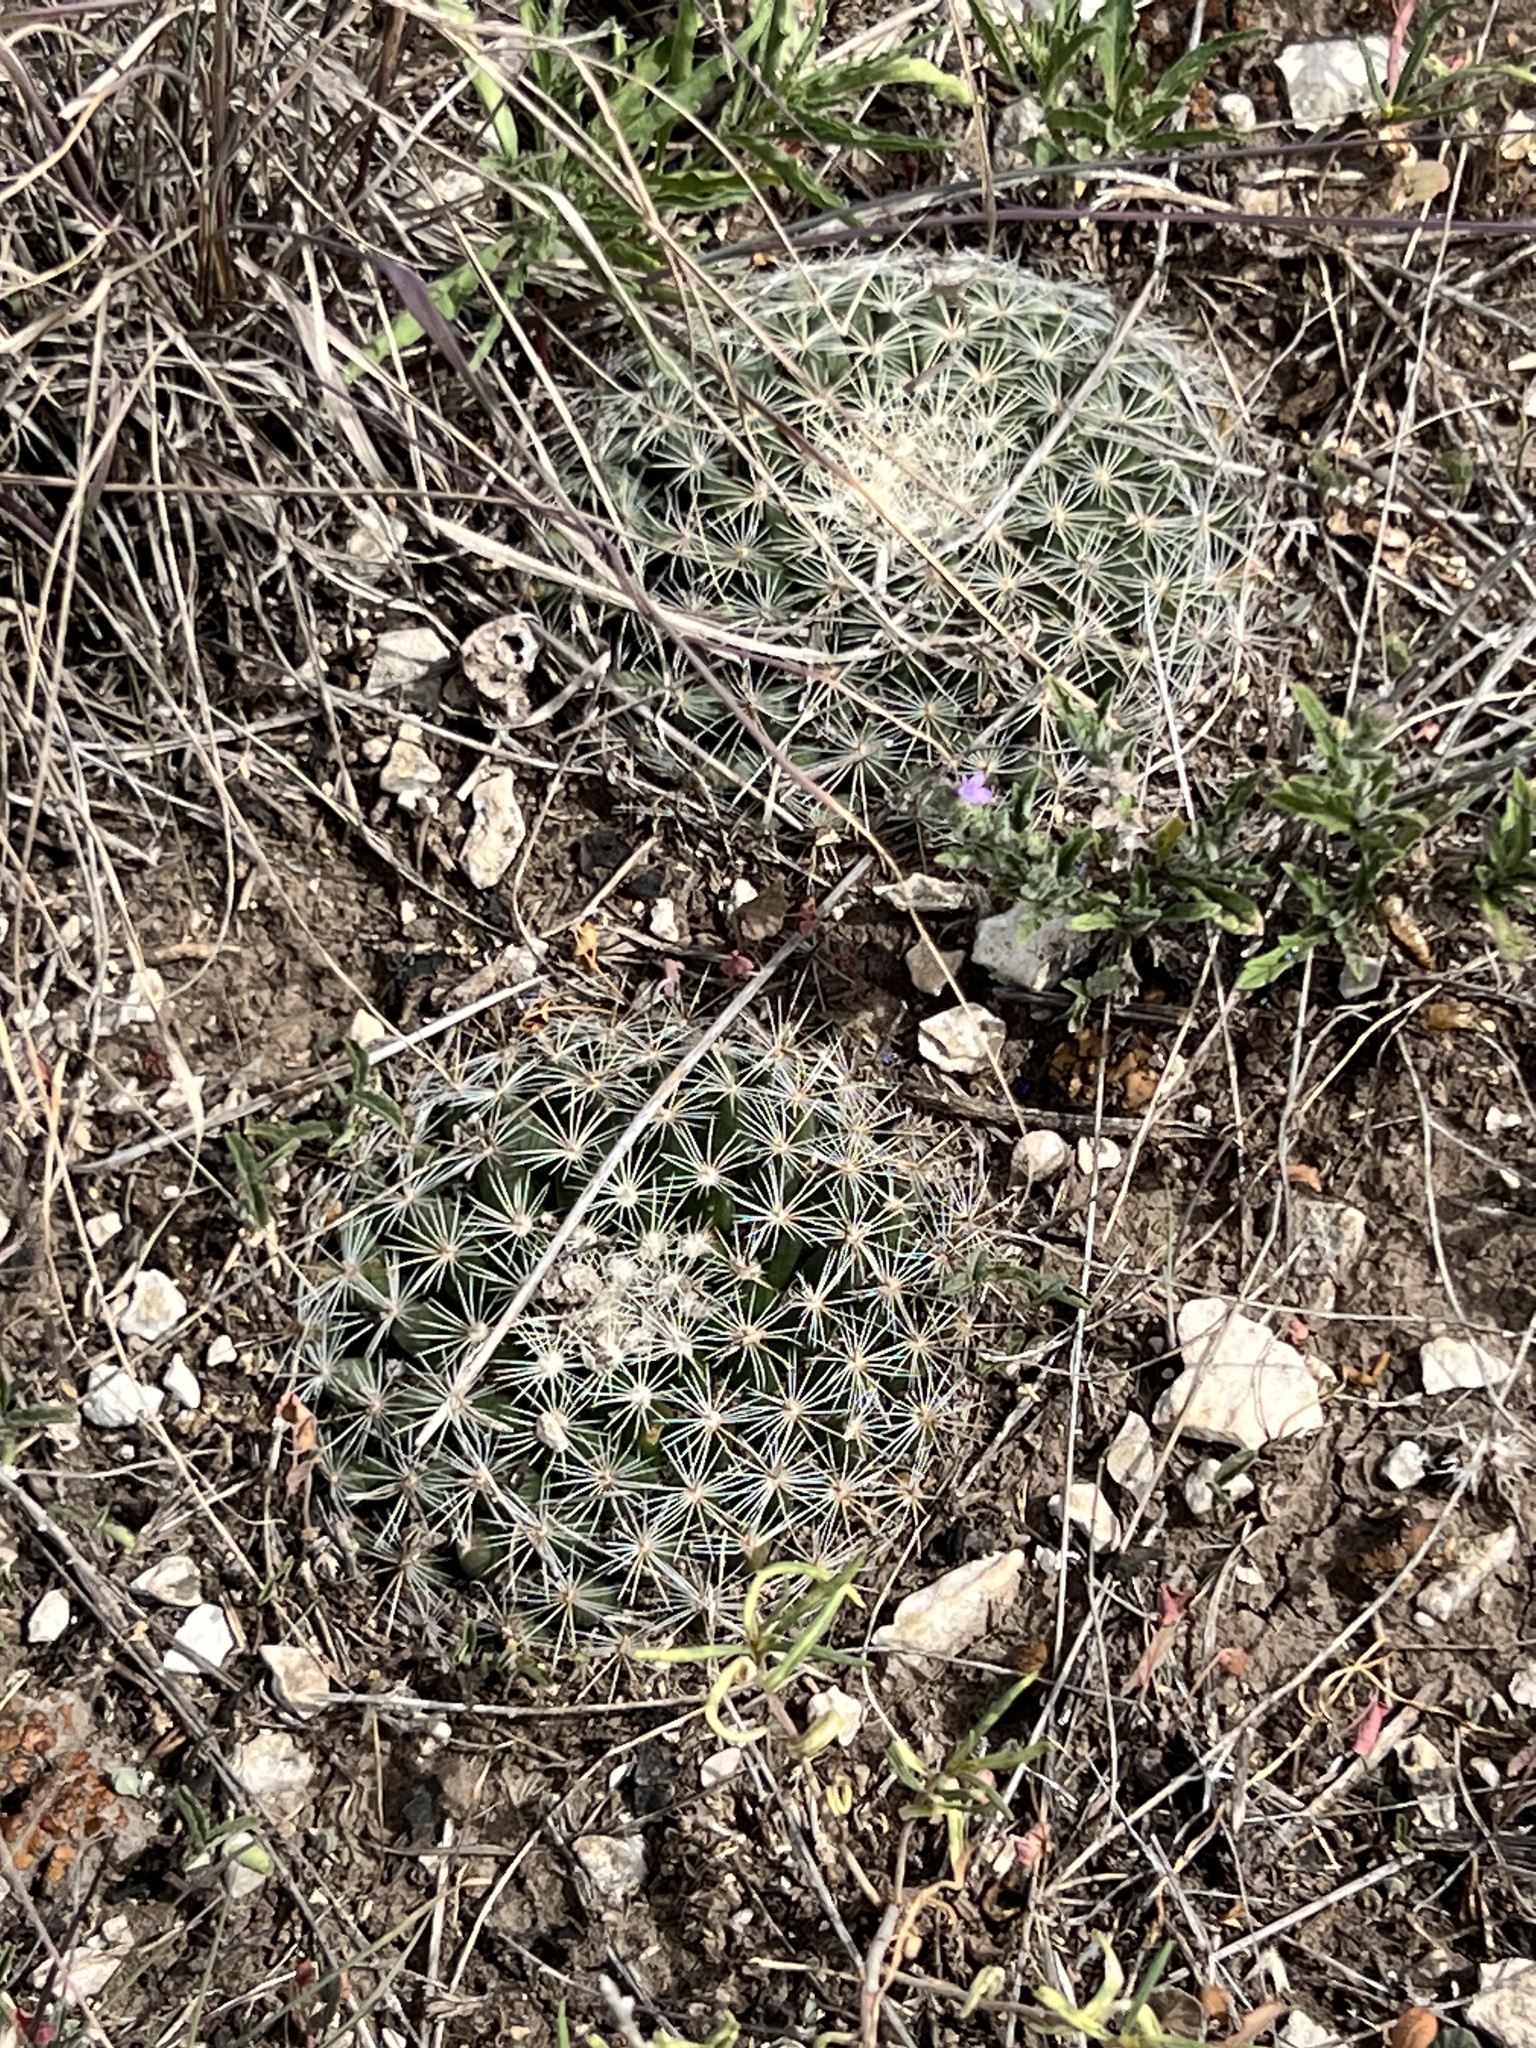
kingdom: Plantae
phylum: Tracheophyta
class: Magnoliopsida
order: Caryophyllales
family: Cactaceae
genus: Mammillaria
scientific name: Mammillaria heyderi
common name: Little nipple cactus
